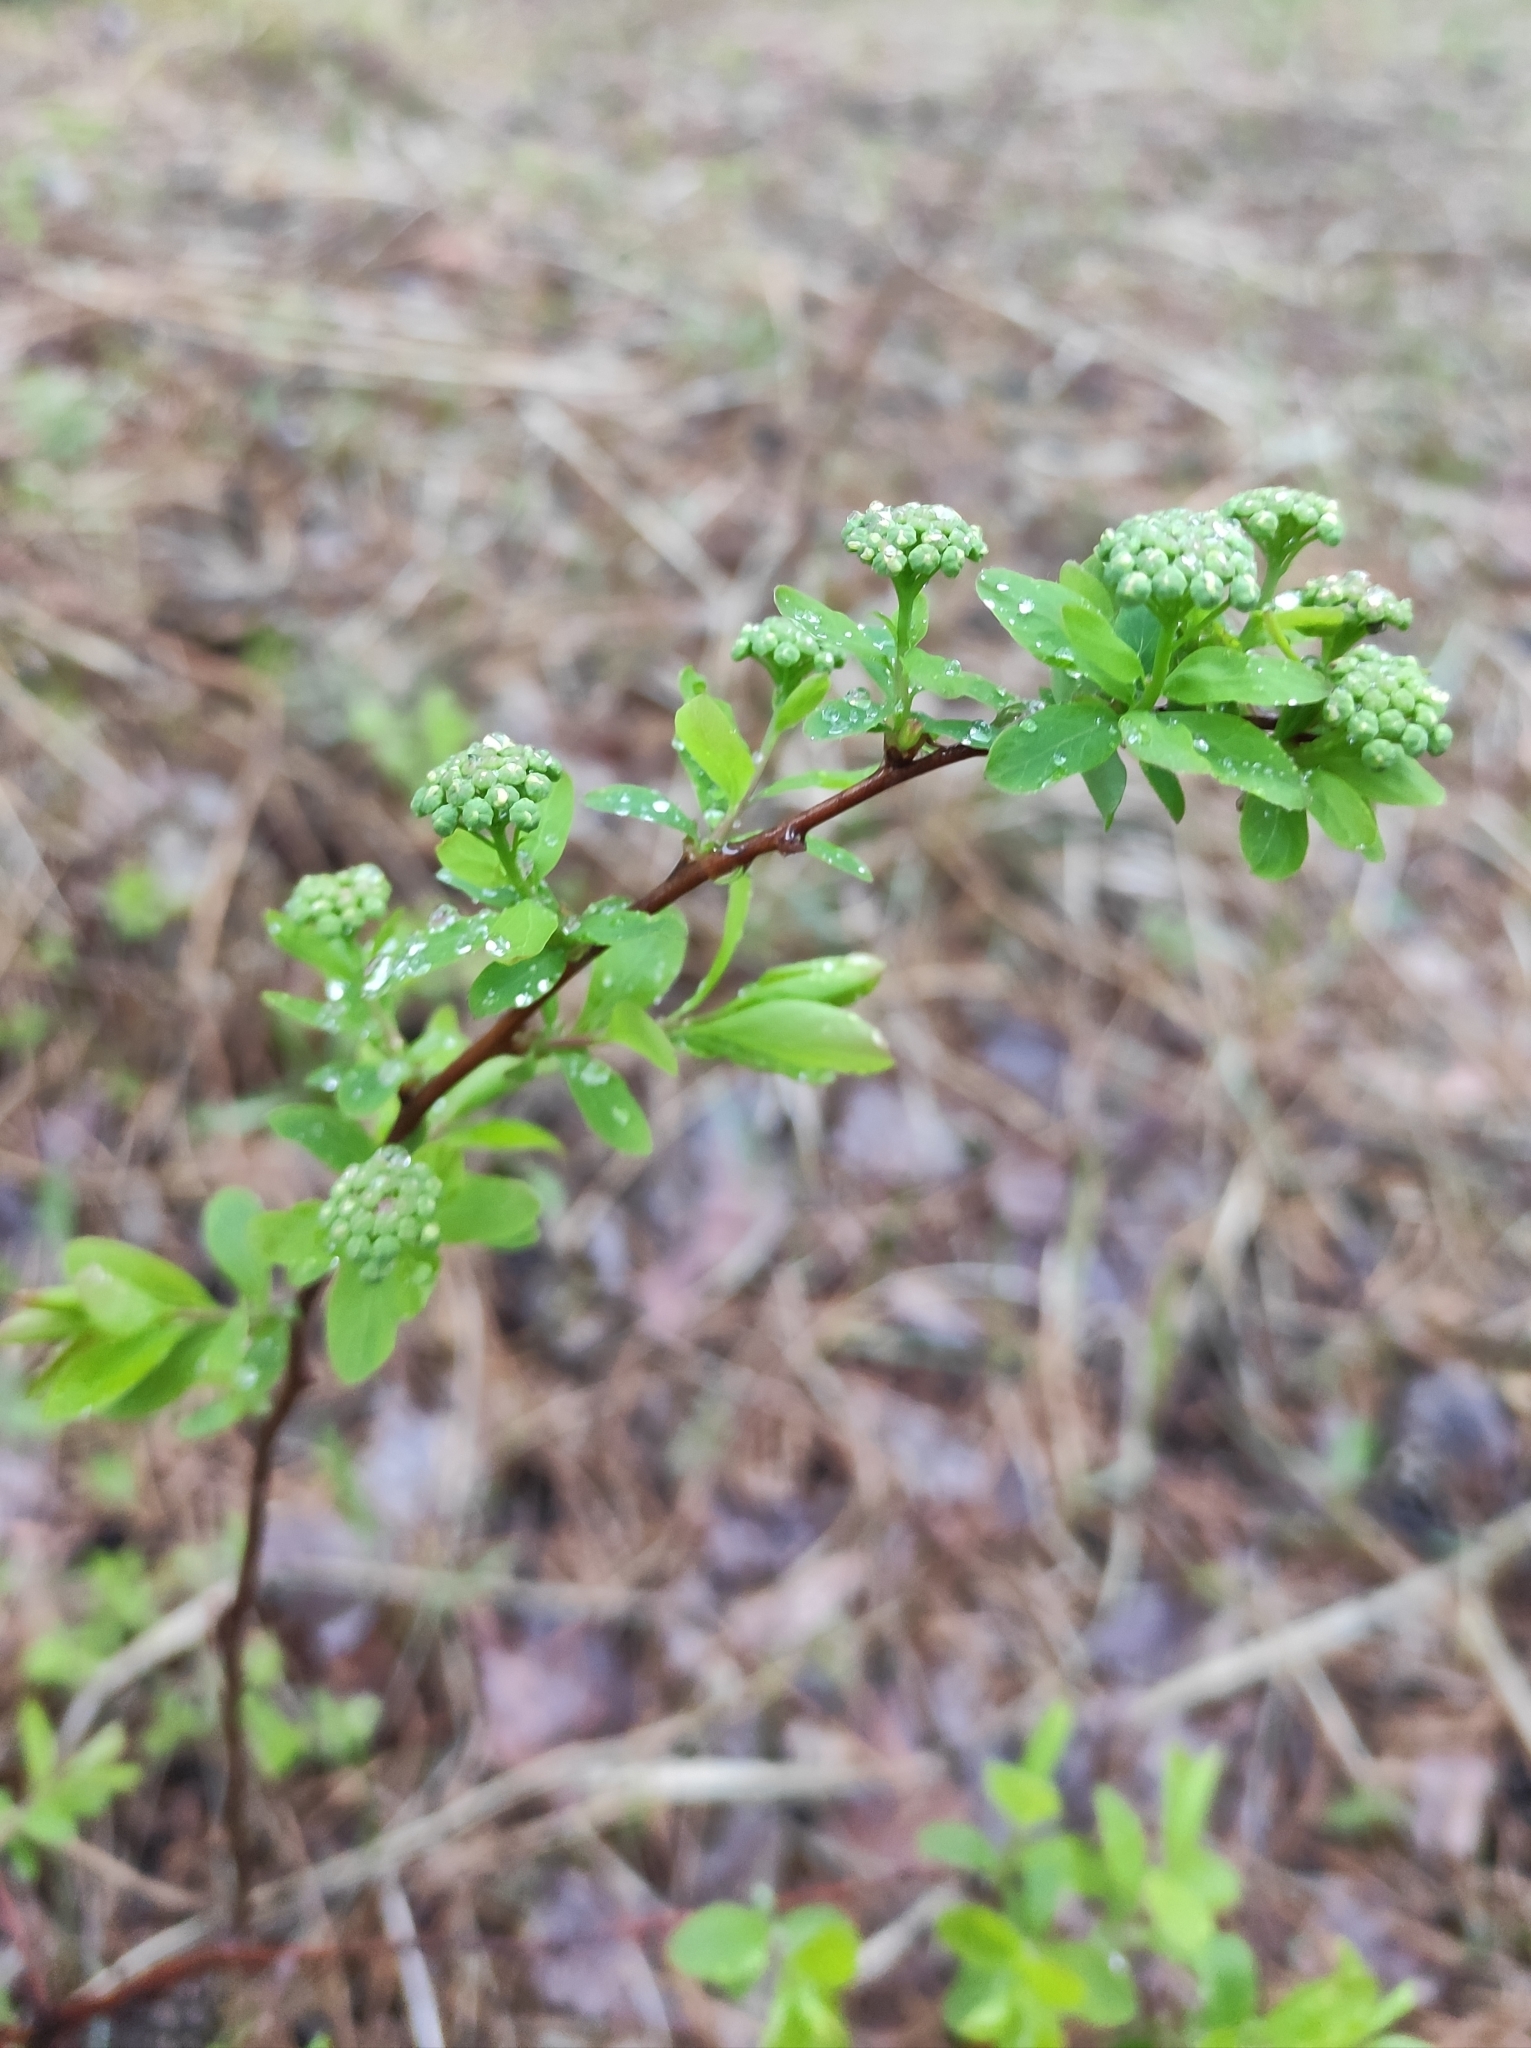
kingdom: Plantae
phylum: Tracheophyta
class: Magnoliopsida
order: Rosales
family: Rosaceae
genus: Spiraea
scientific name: Spiraea media
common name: Russian spiraea
